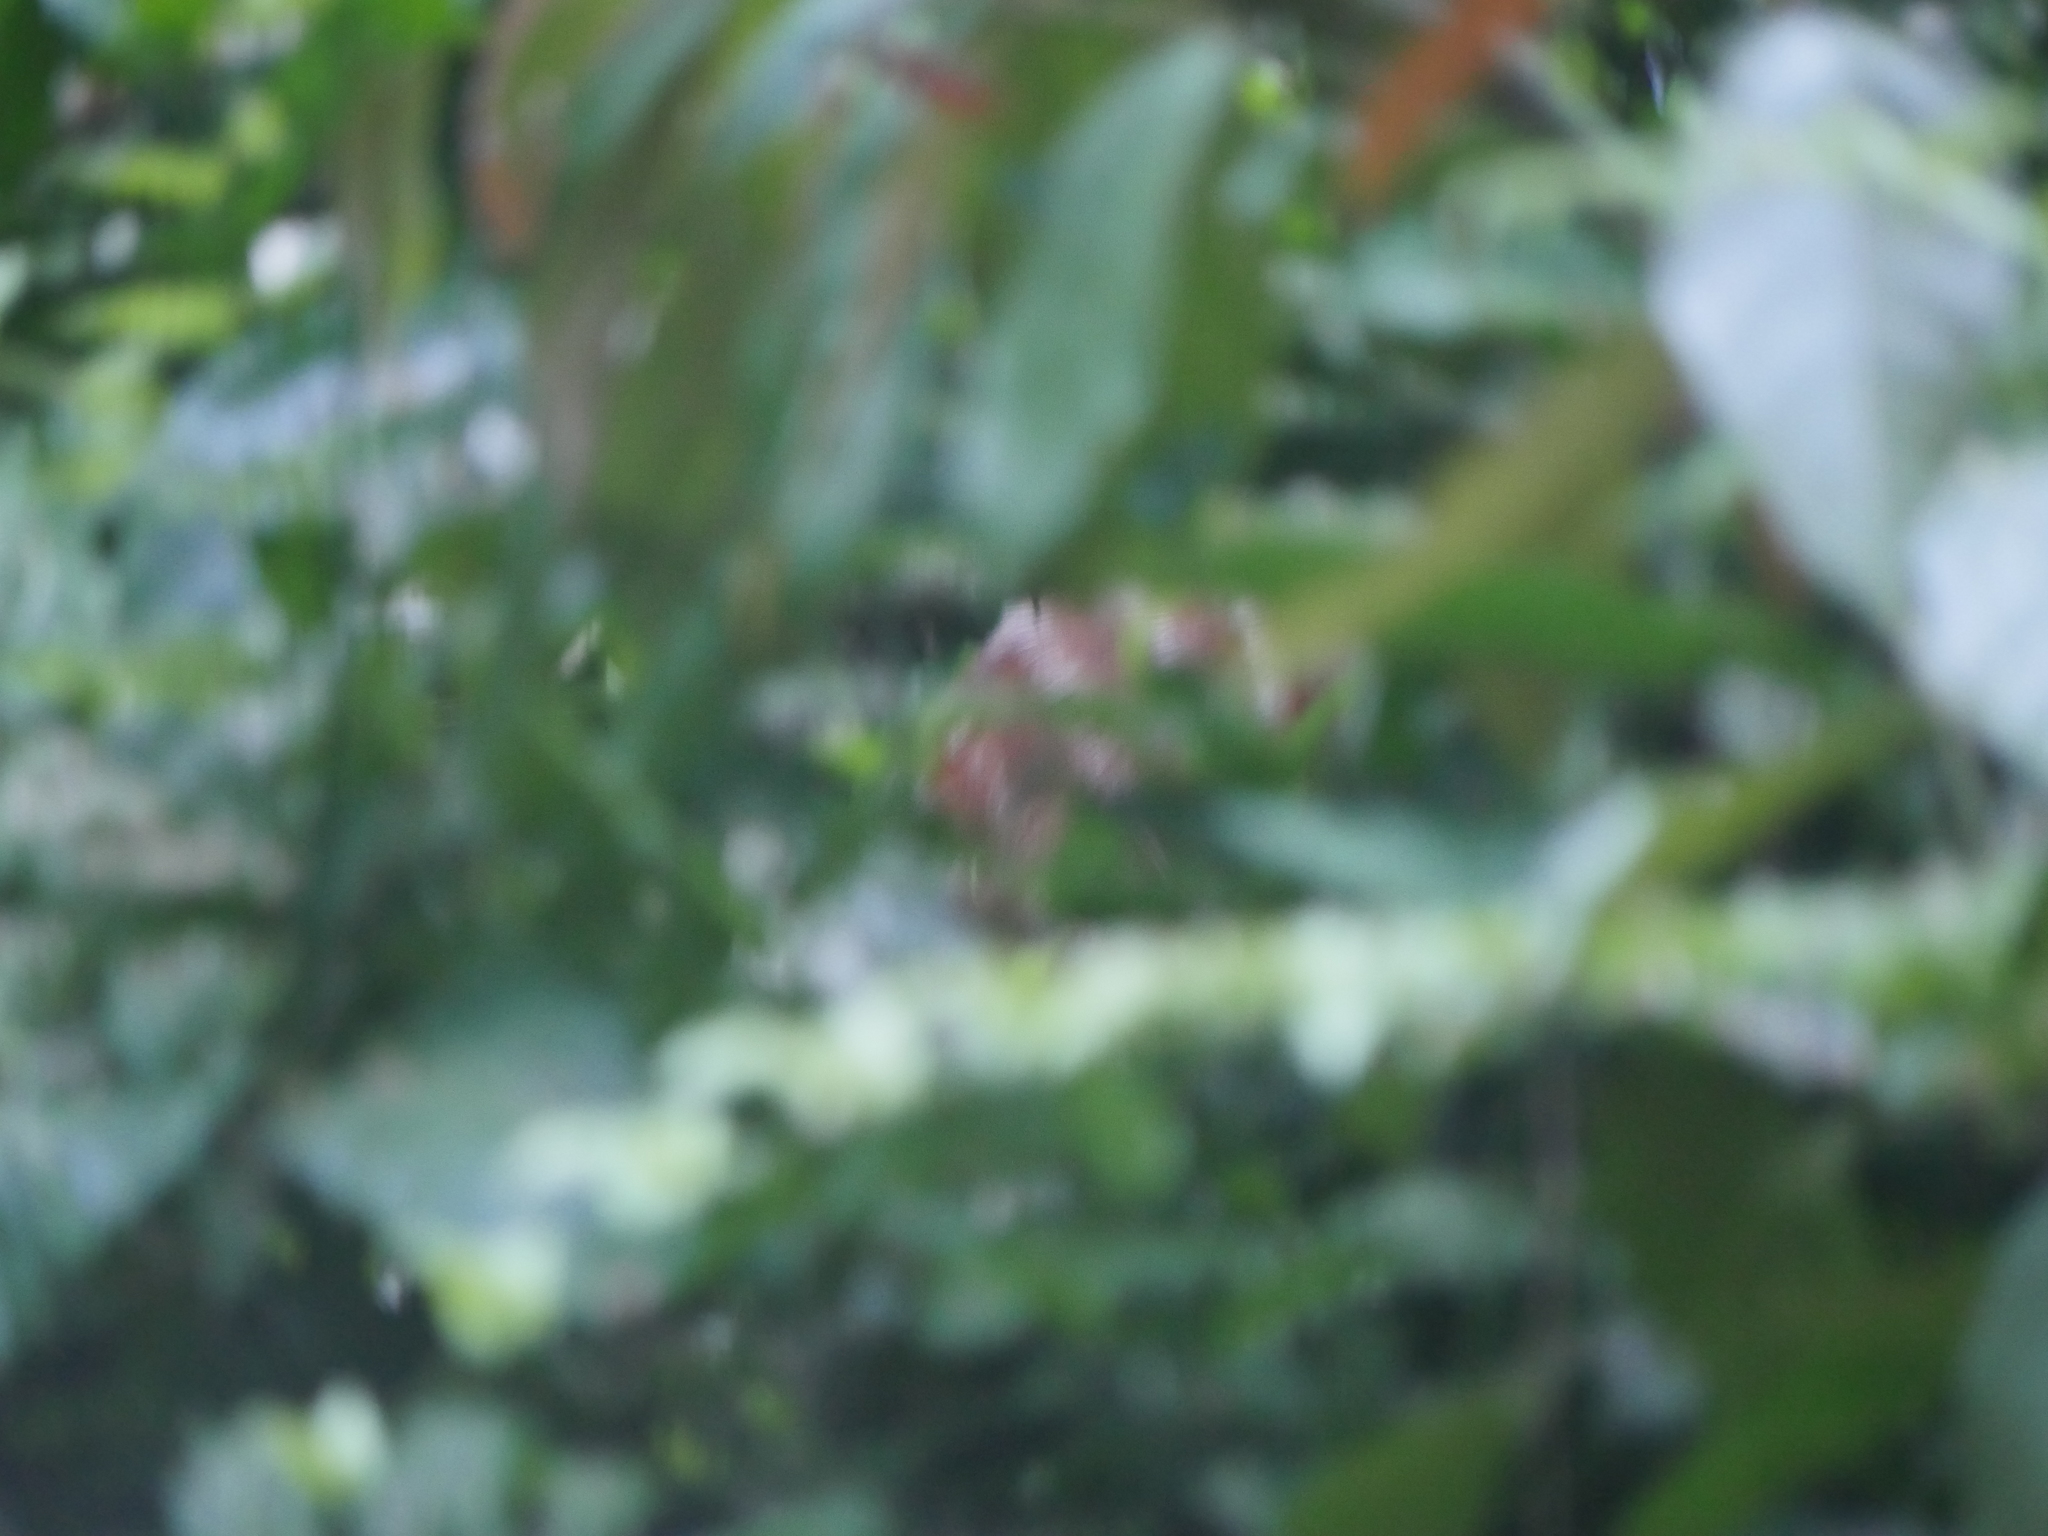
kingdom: Animalia
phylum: Chordata
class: Mammalia
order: Artiodactyla
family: Bovidae
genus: Tragelaphus
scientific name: Tragelaphus spekii
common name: Sitatunga
